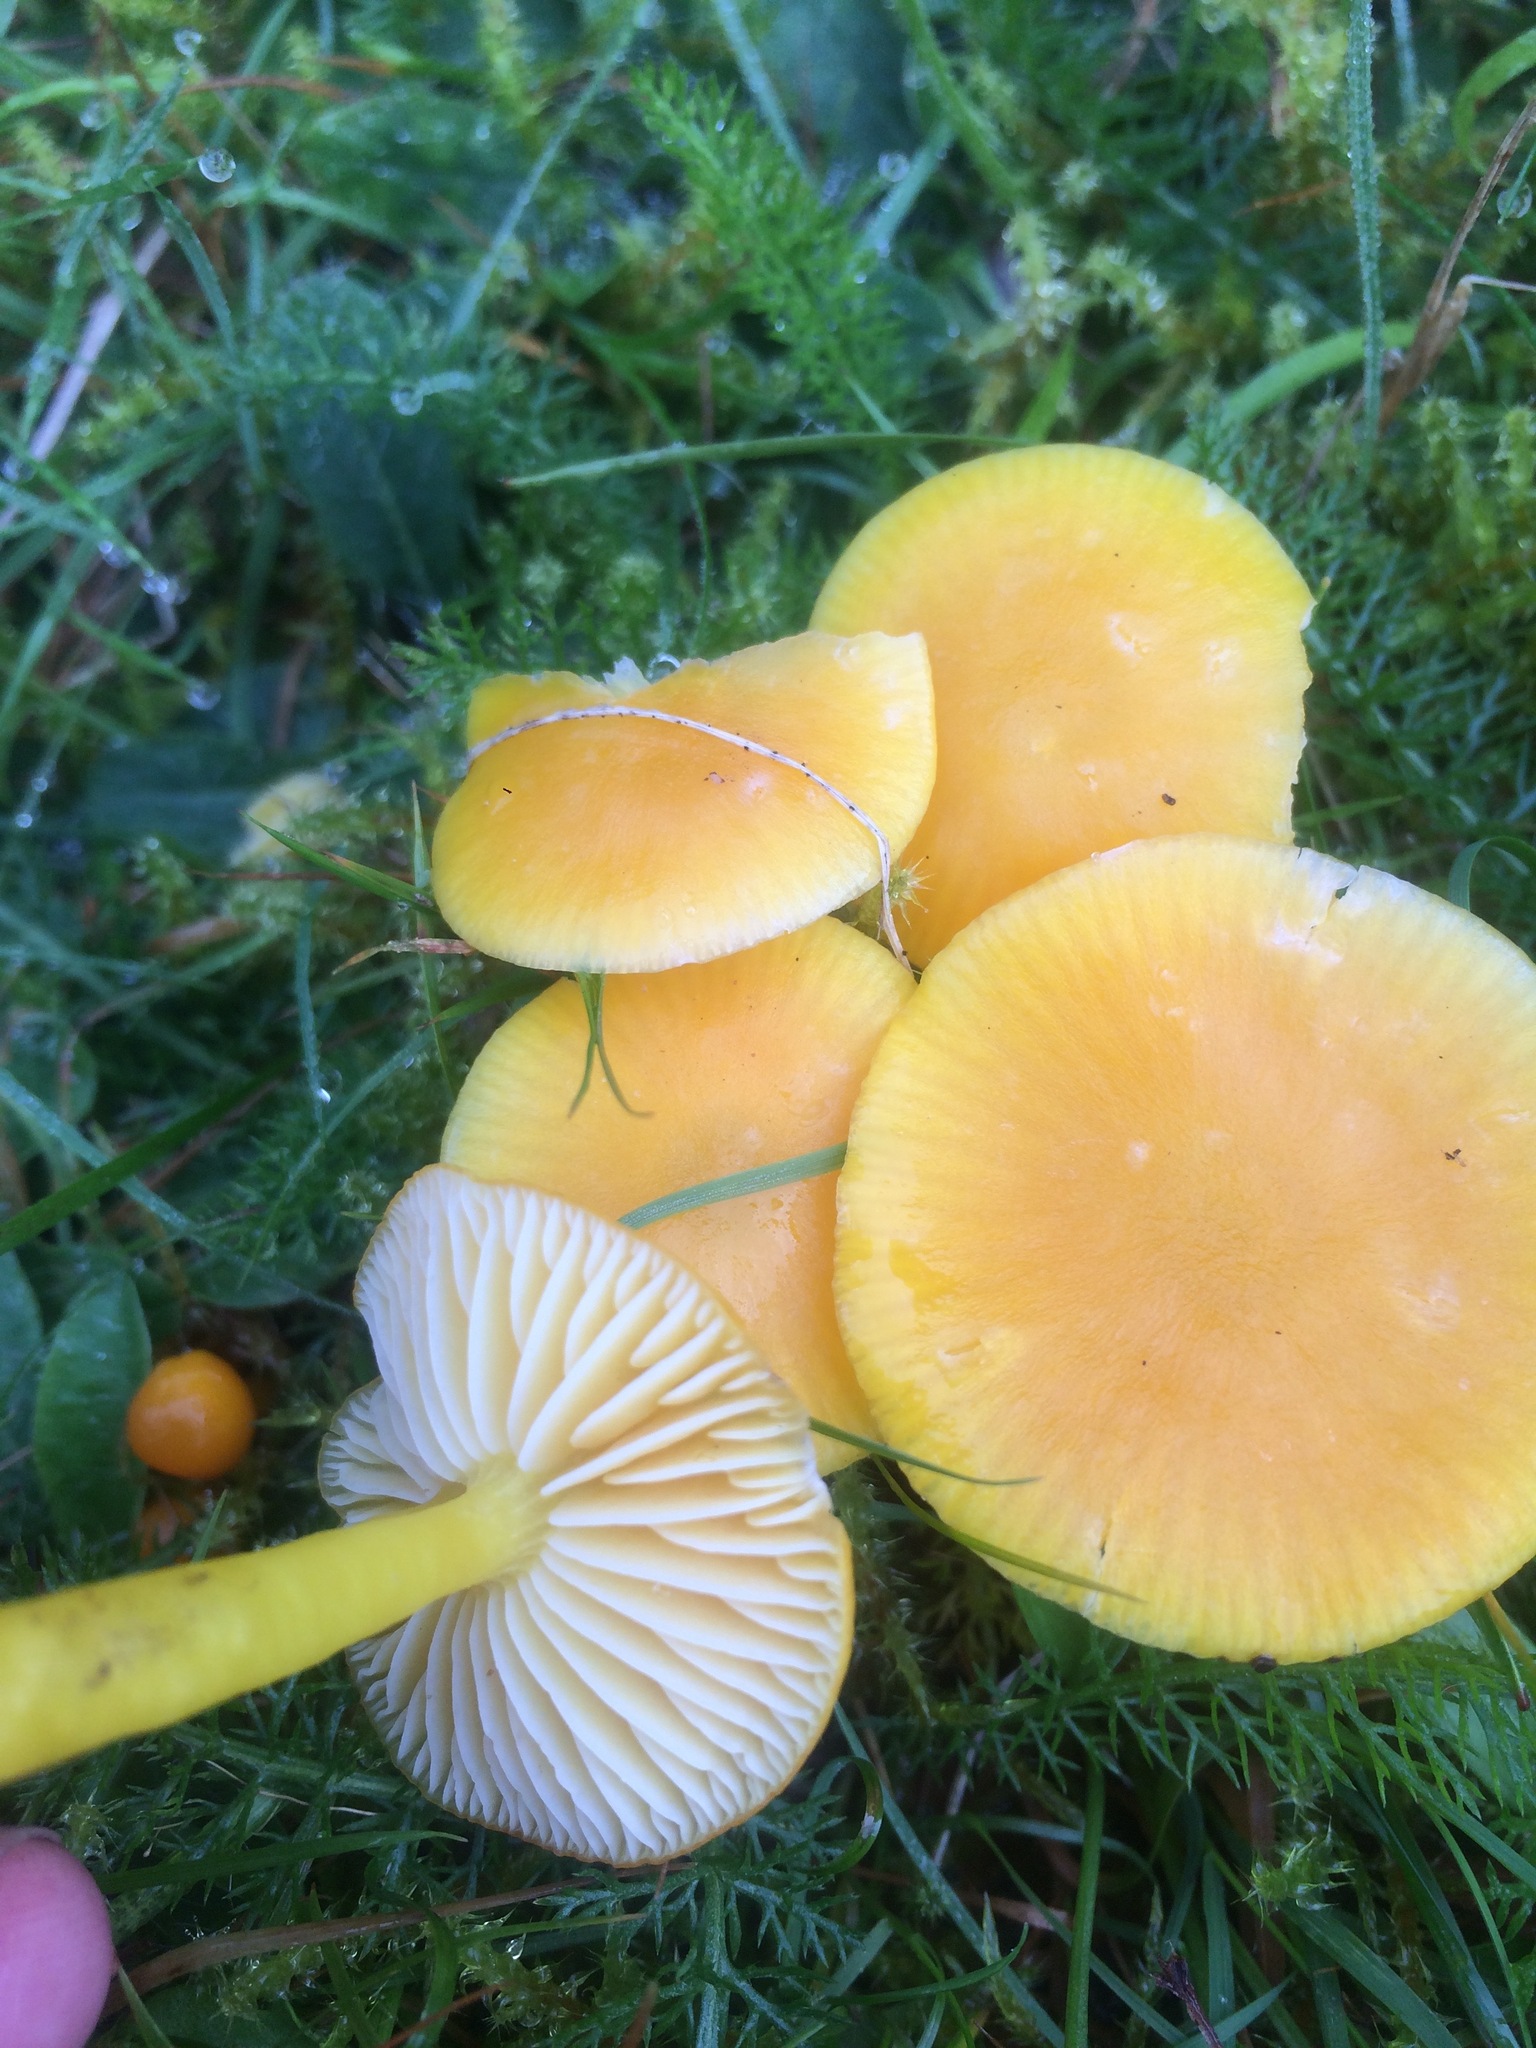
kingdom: Fungi
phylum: Basidiomycota
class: Agaricomycetes
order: Agaricales
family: Hygrophoraceae
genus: Hygrocybe
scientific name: Hygrocybe ceracea
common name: Butter waxcap
